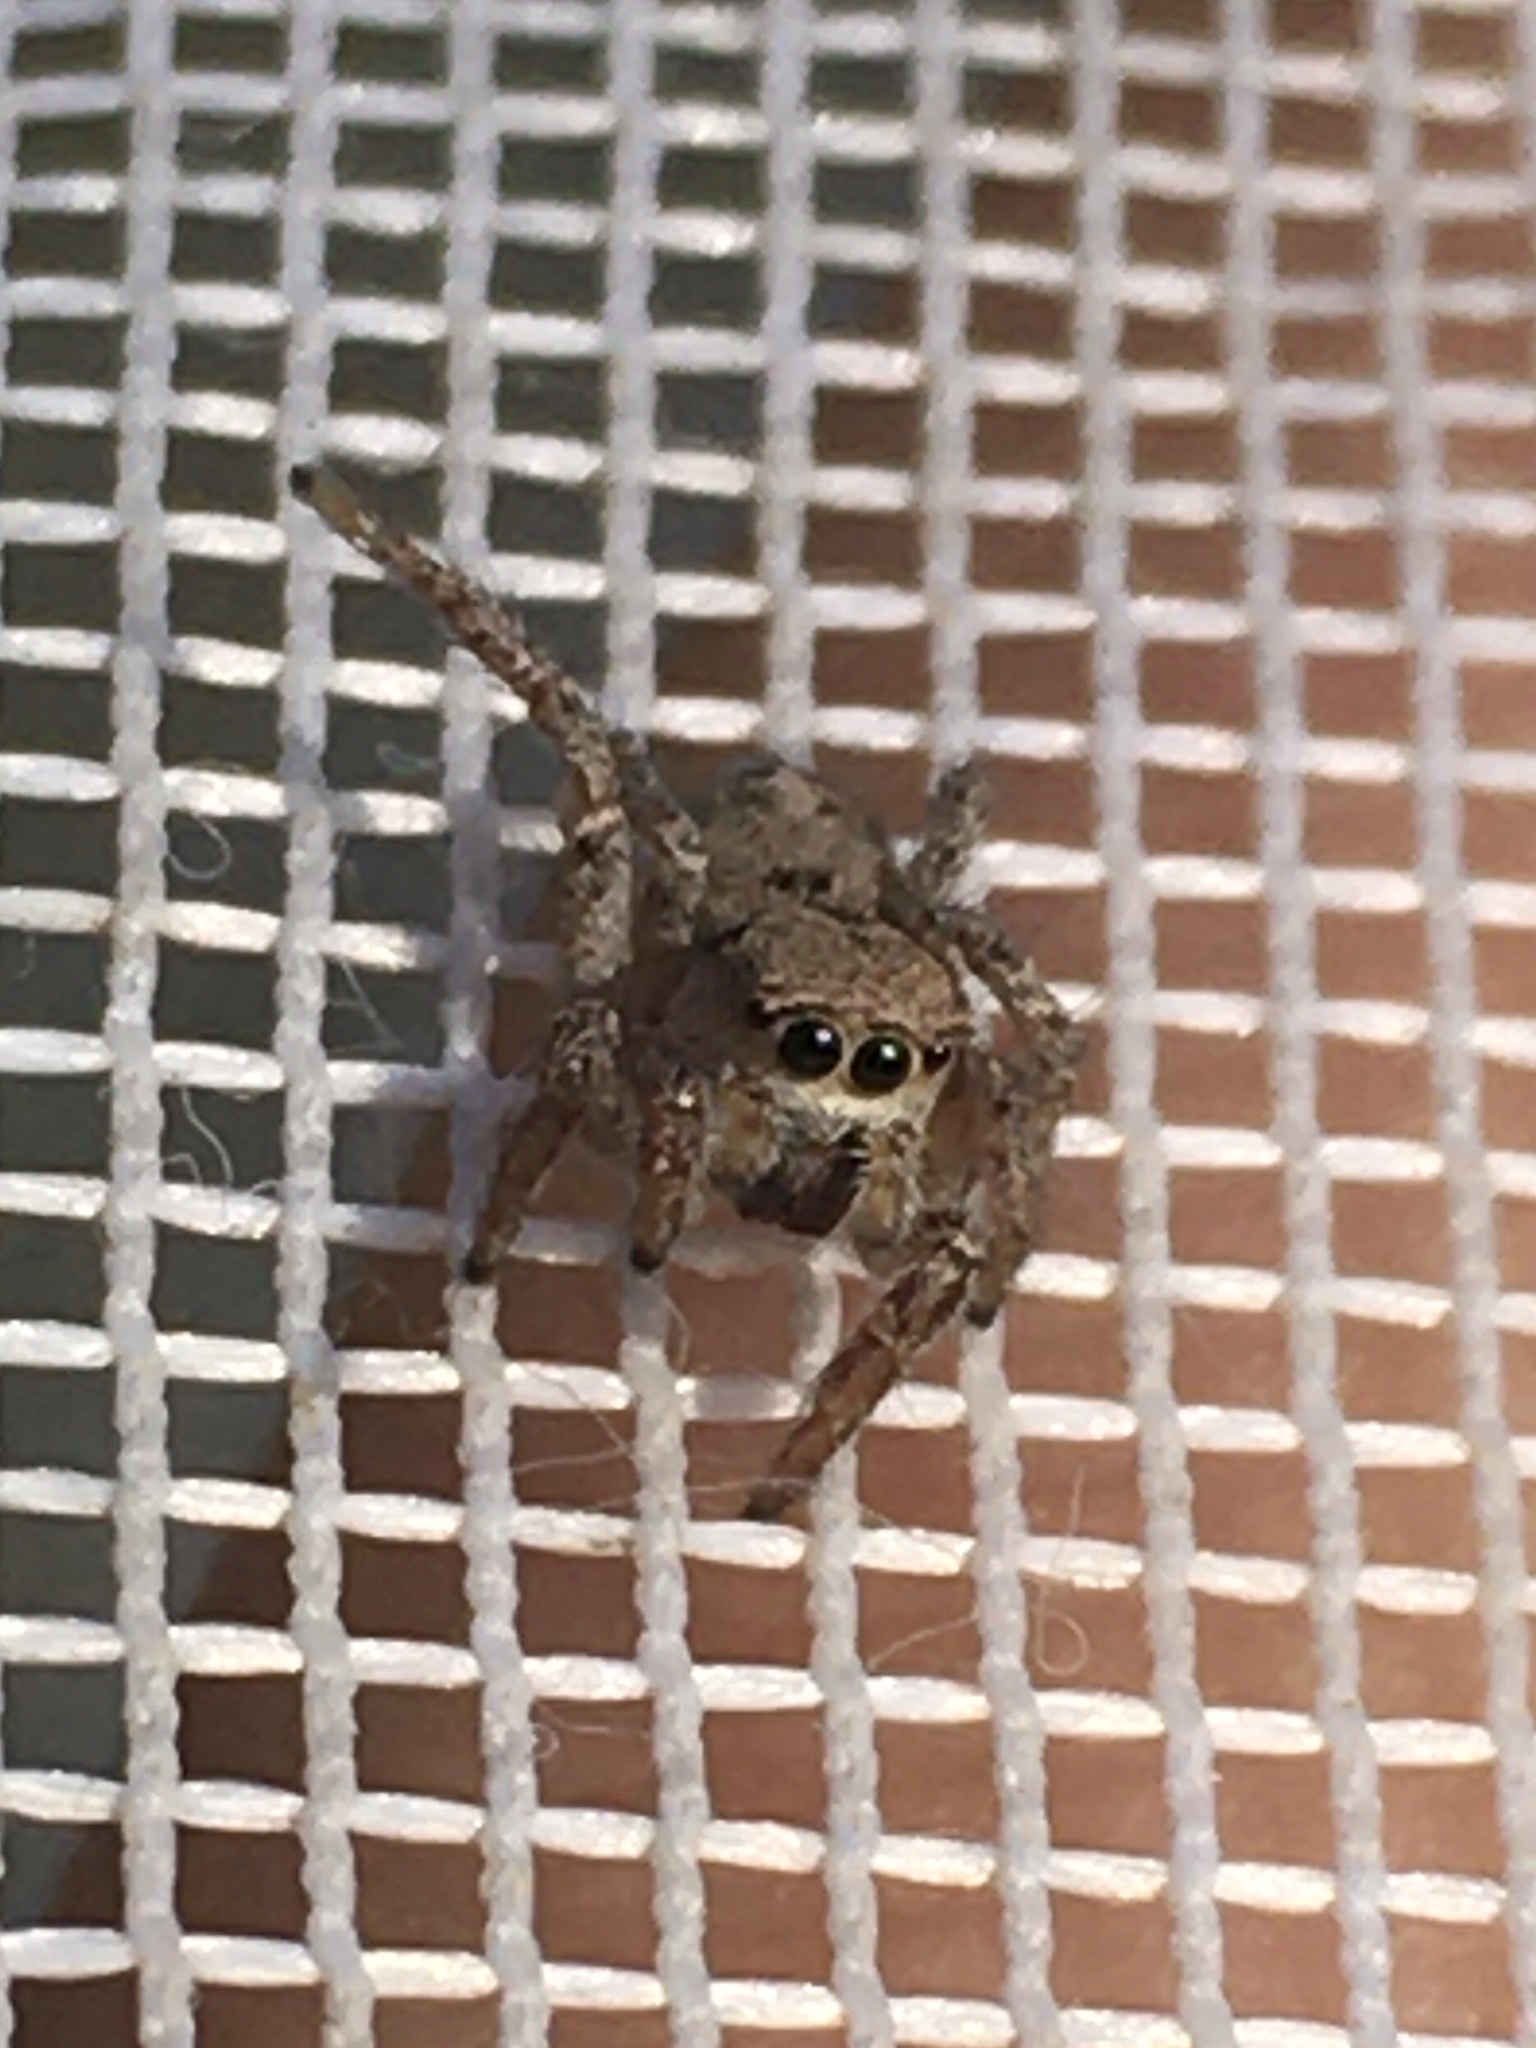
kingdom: Animalia
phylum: Arthropoda
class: Arachnida
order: Araneae
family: Salticidae
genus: Habronattus
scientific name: Habronattus decorus
